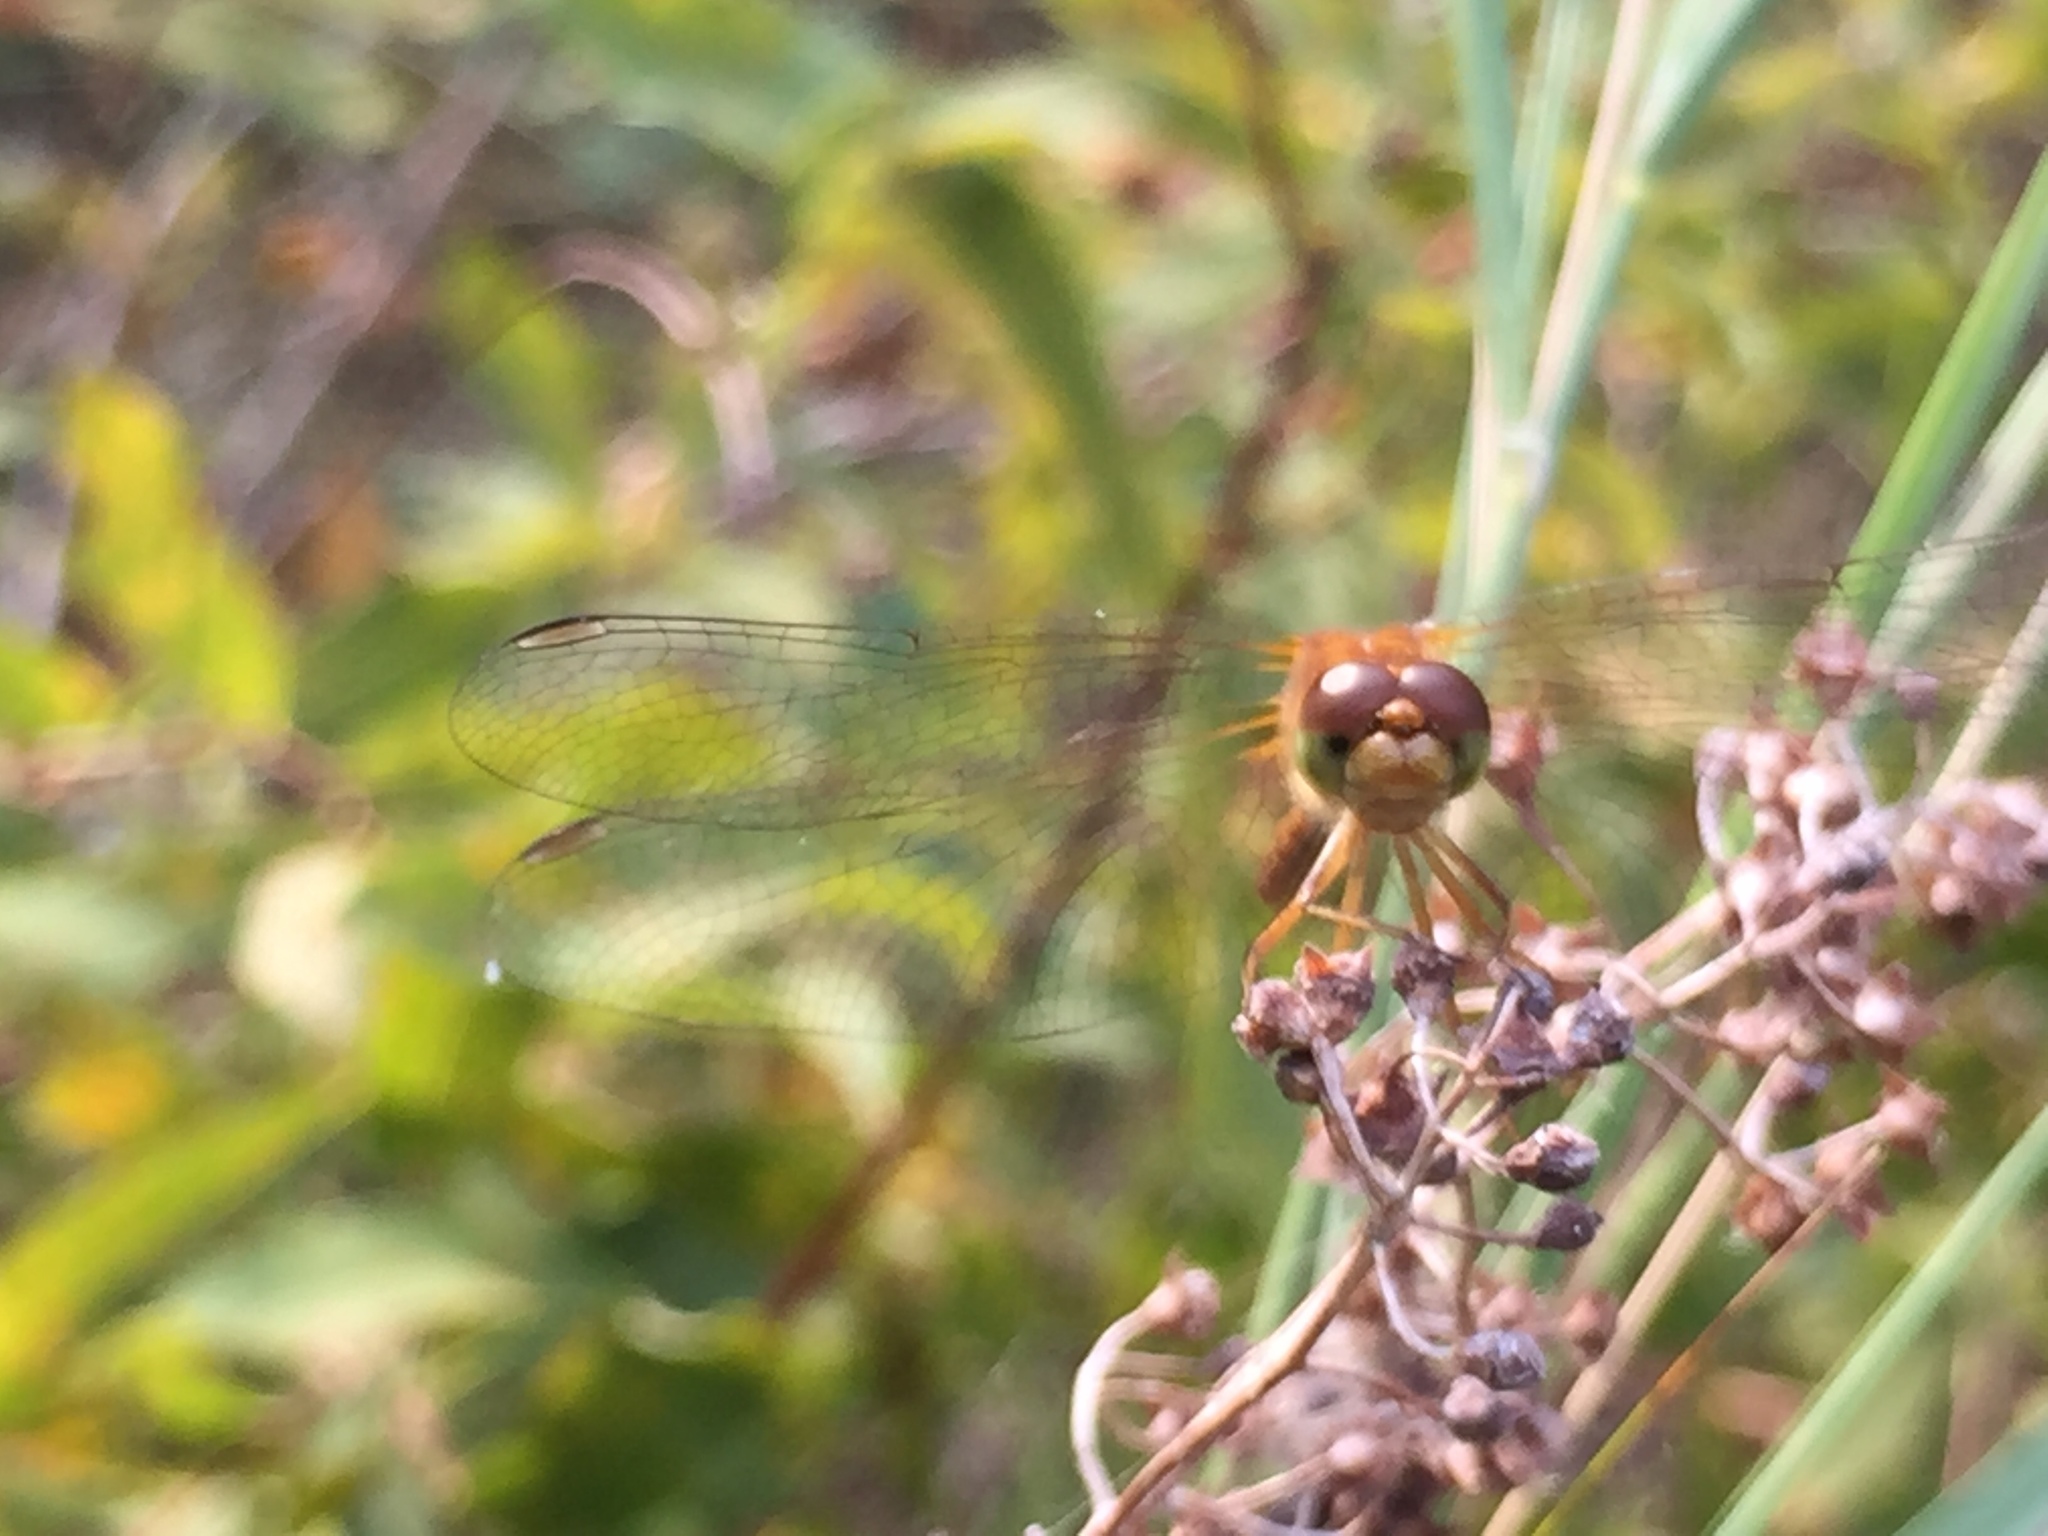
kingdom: Animalia
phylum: Arthropoda
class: Insecta
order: Odonata
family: Libellulidae
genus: Sympetrum
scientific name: Sympetrum vicinum
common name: Autumn meadowhawk
